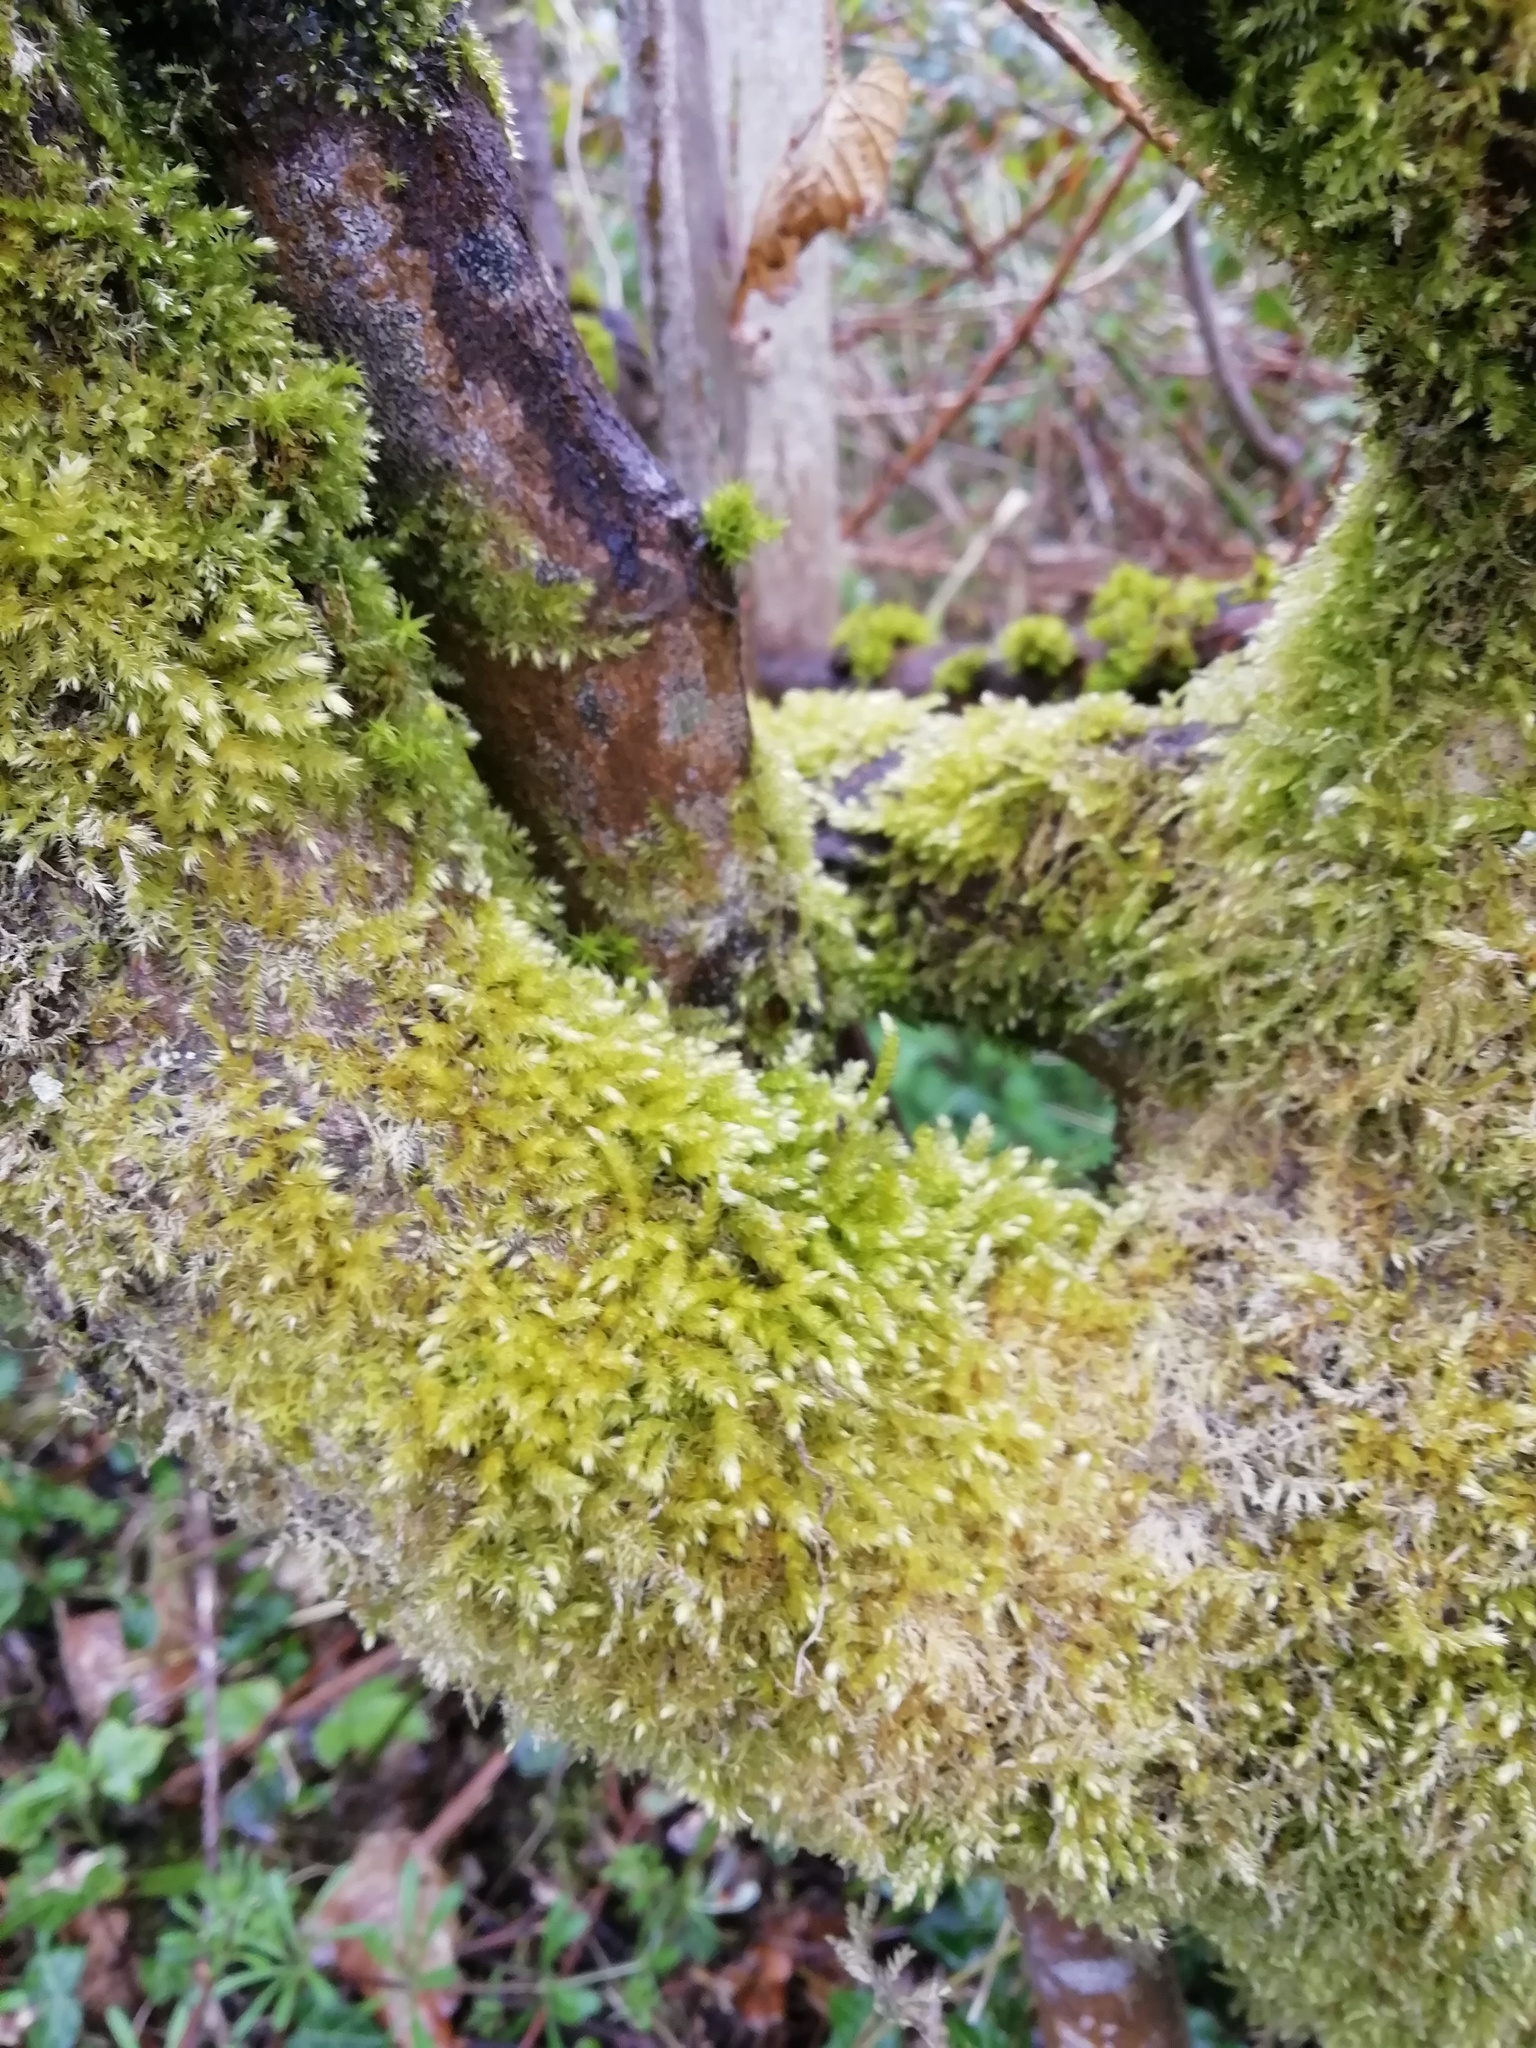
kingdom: Plantae
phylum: Bryophyta
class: Bryopsida
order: Hypnales
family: Brachytheciaceae
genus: Brachythecium
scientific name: Brachythecium rutabulum
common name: Rough-stalked feather-moss
